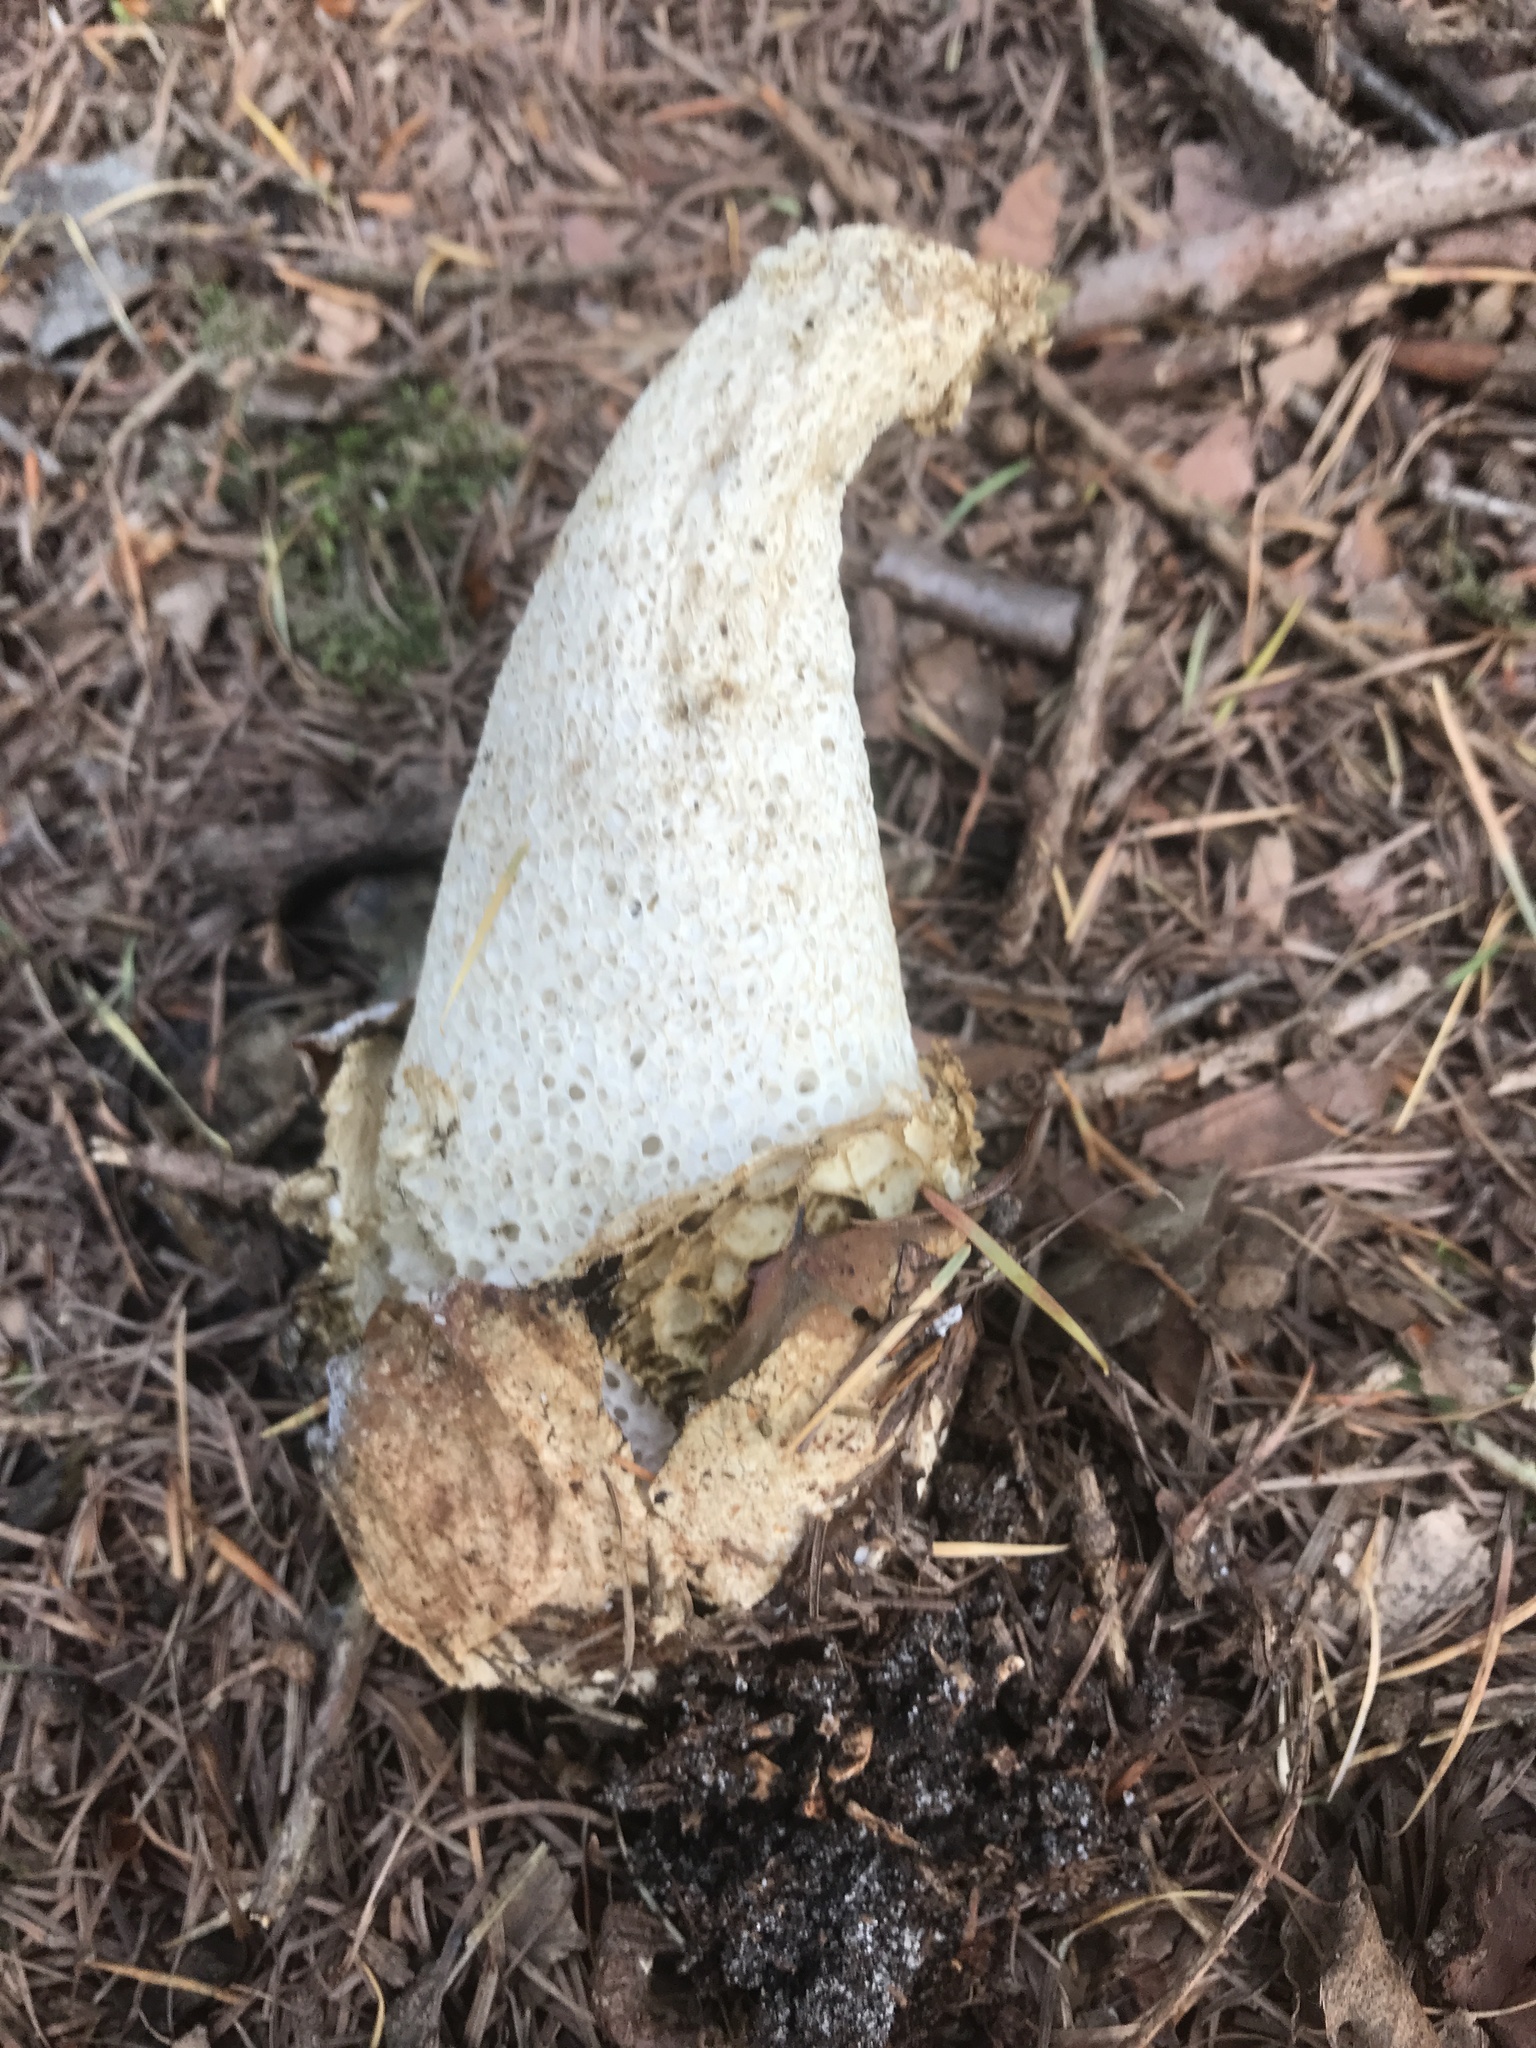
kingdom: Fungi
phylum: Basidiomycota
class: Agaricomycetes
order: Phallales
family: Phallaceae
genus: Phallus
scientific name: Phallus impudicus
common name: Common stinkhorn
